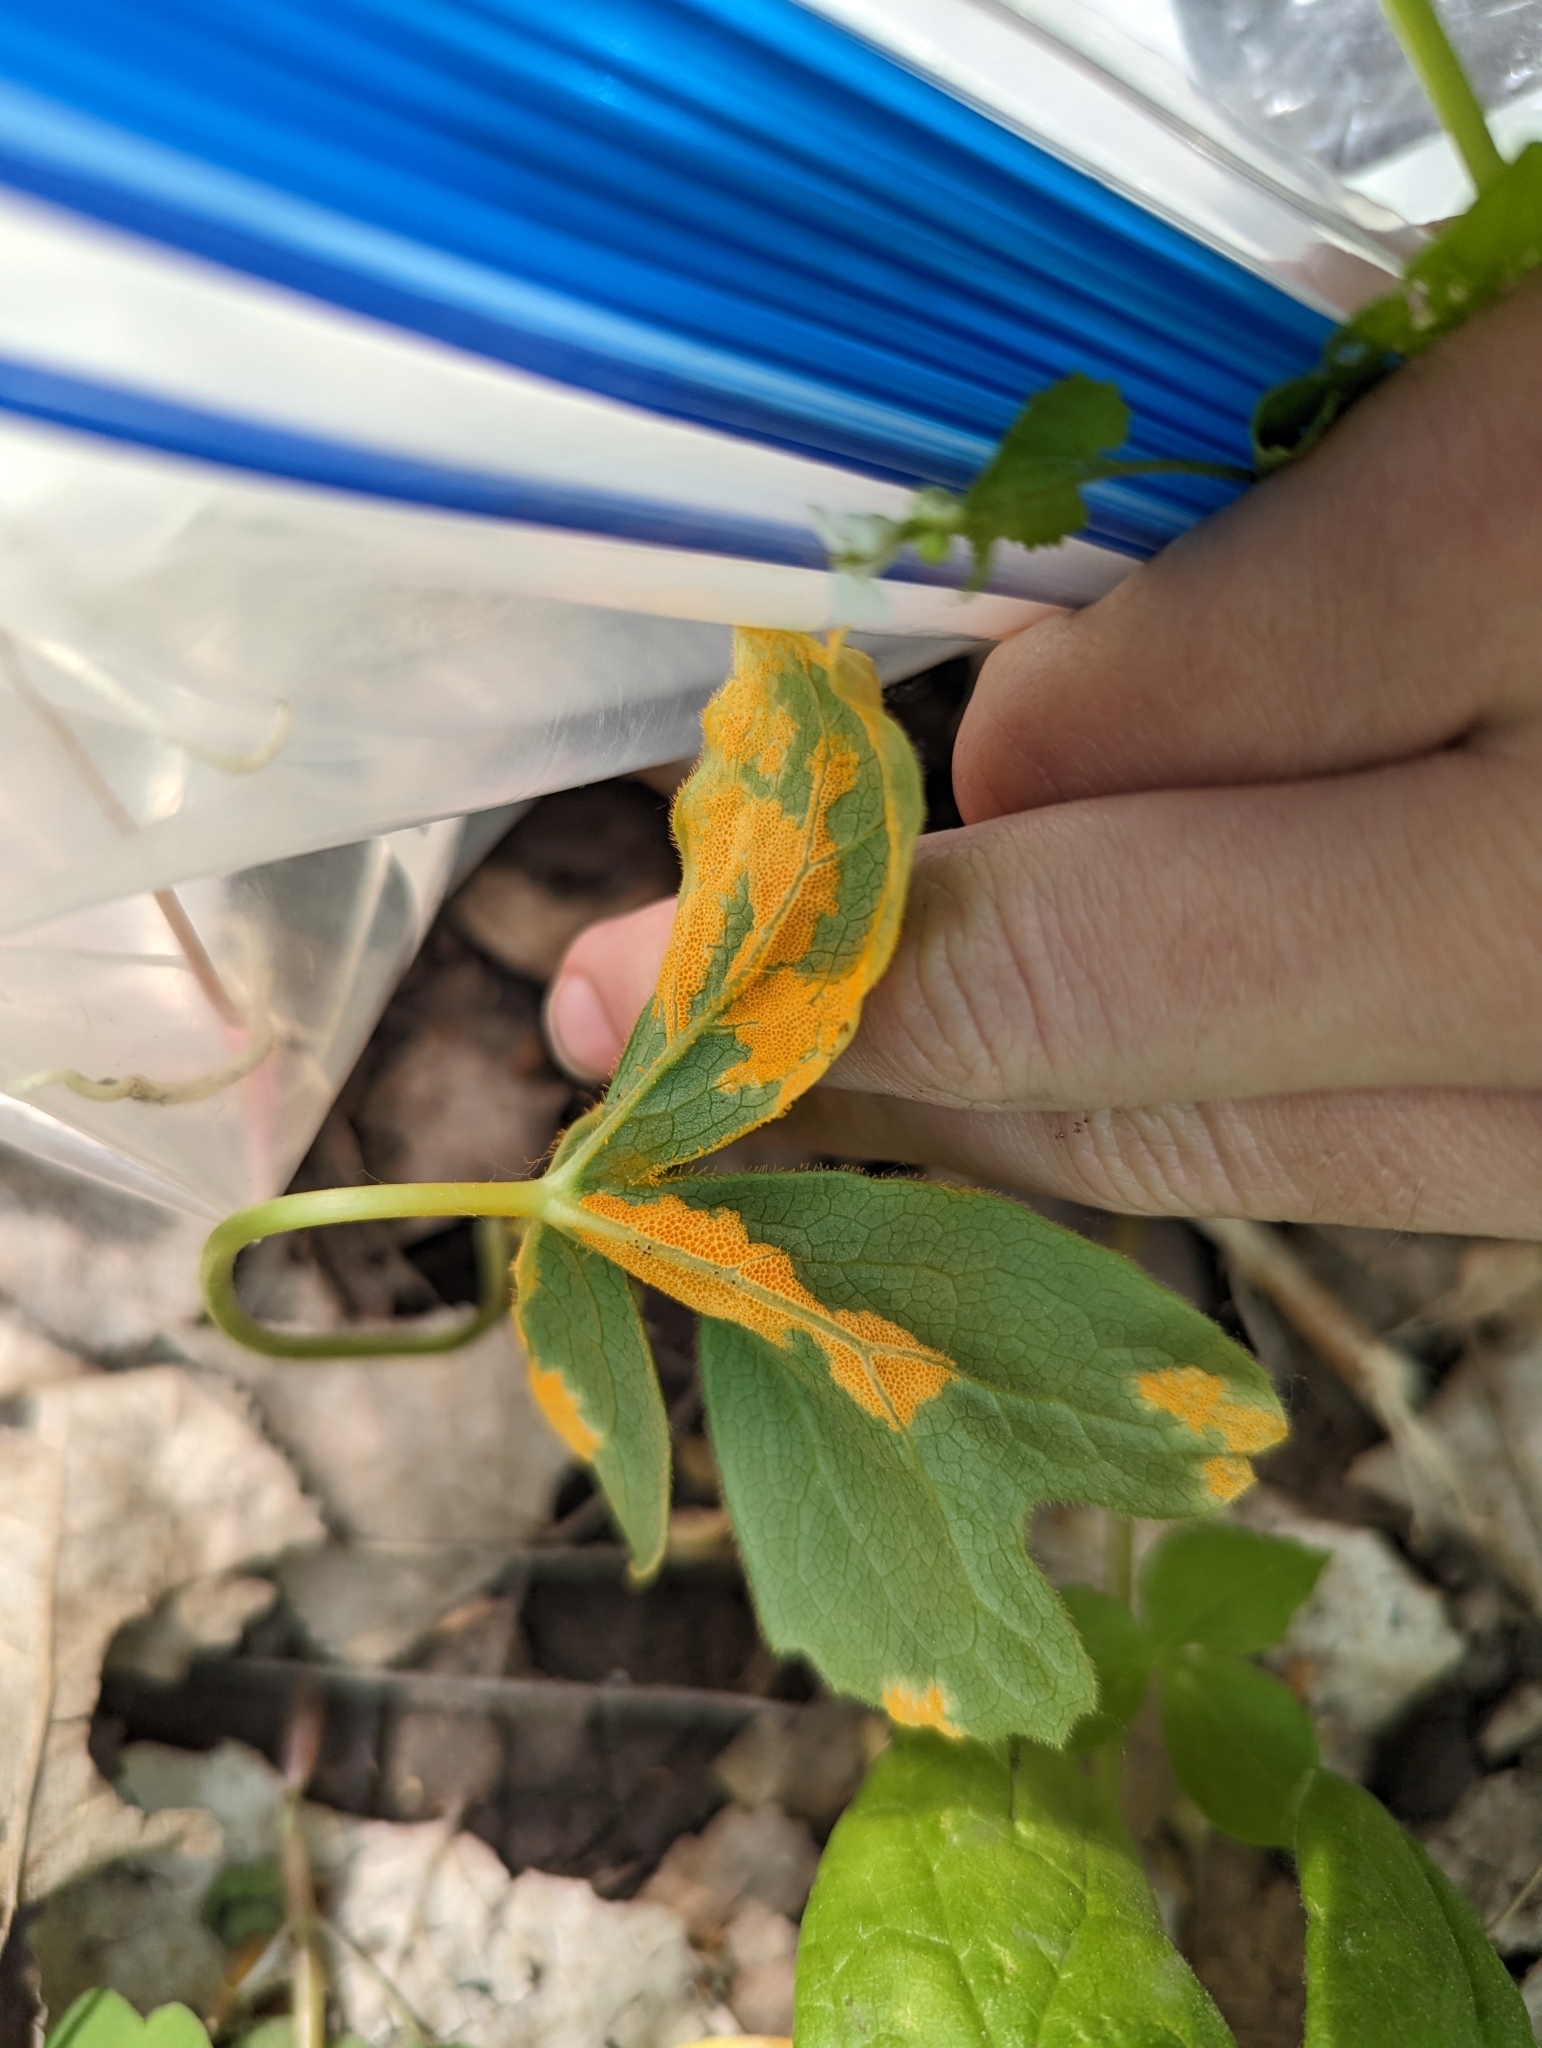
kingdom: Fungi
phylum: Basidiomycota
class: Pucciniomycetes
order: Pucciniales
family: Pucciniaceae
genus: Puccinia
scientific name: Puccinia podophylli
